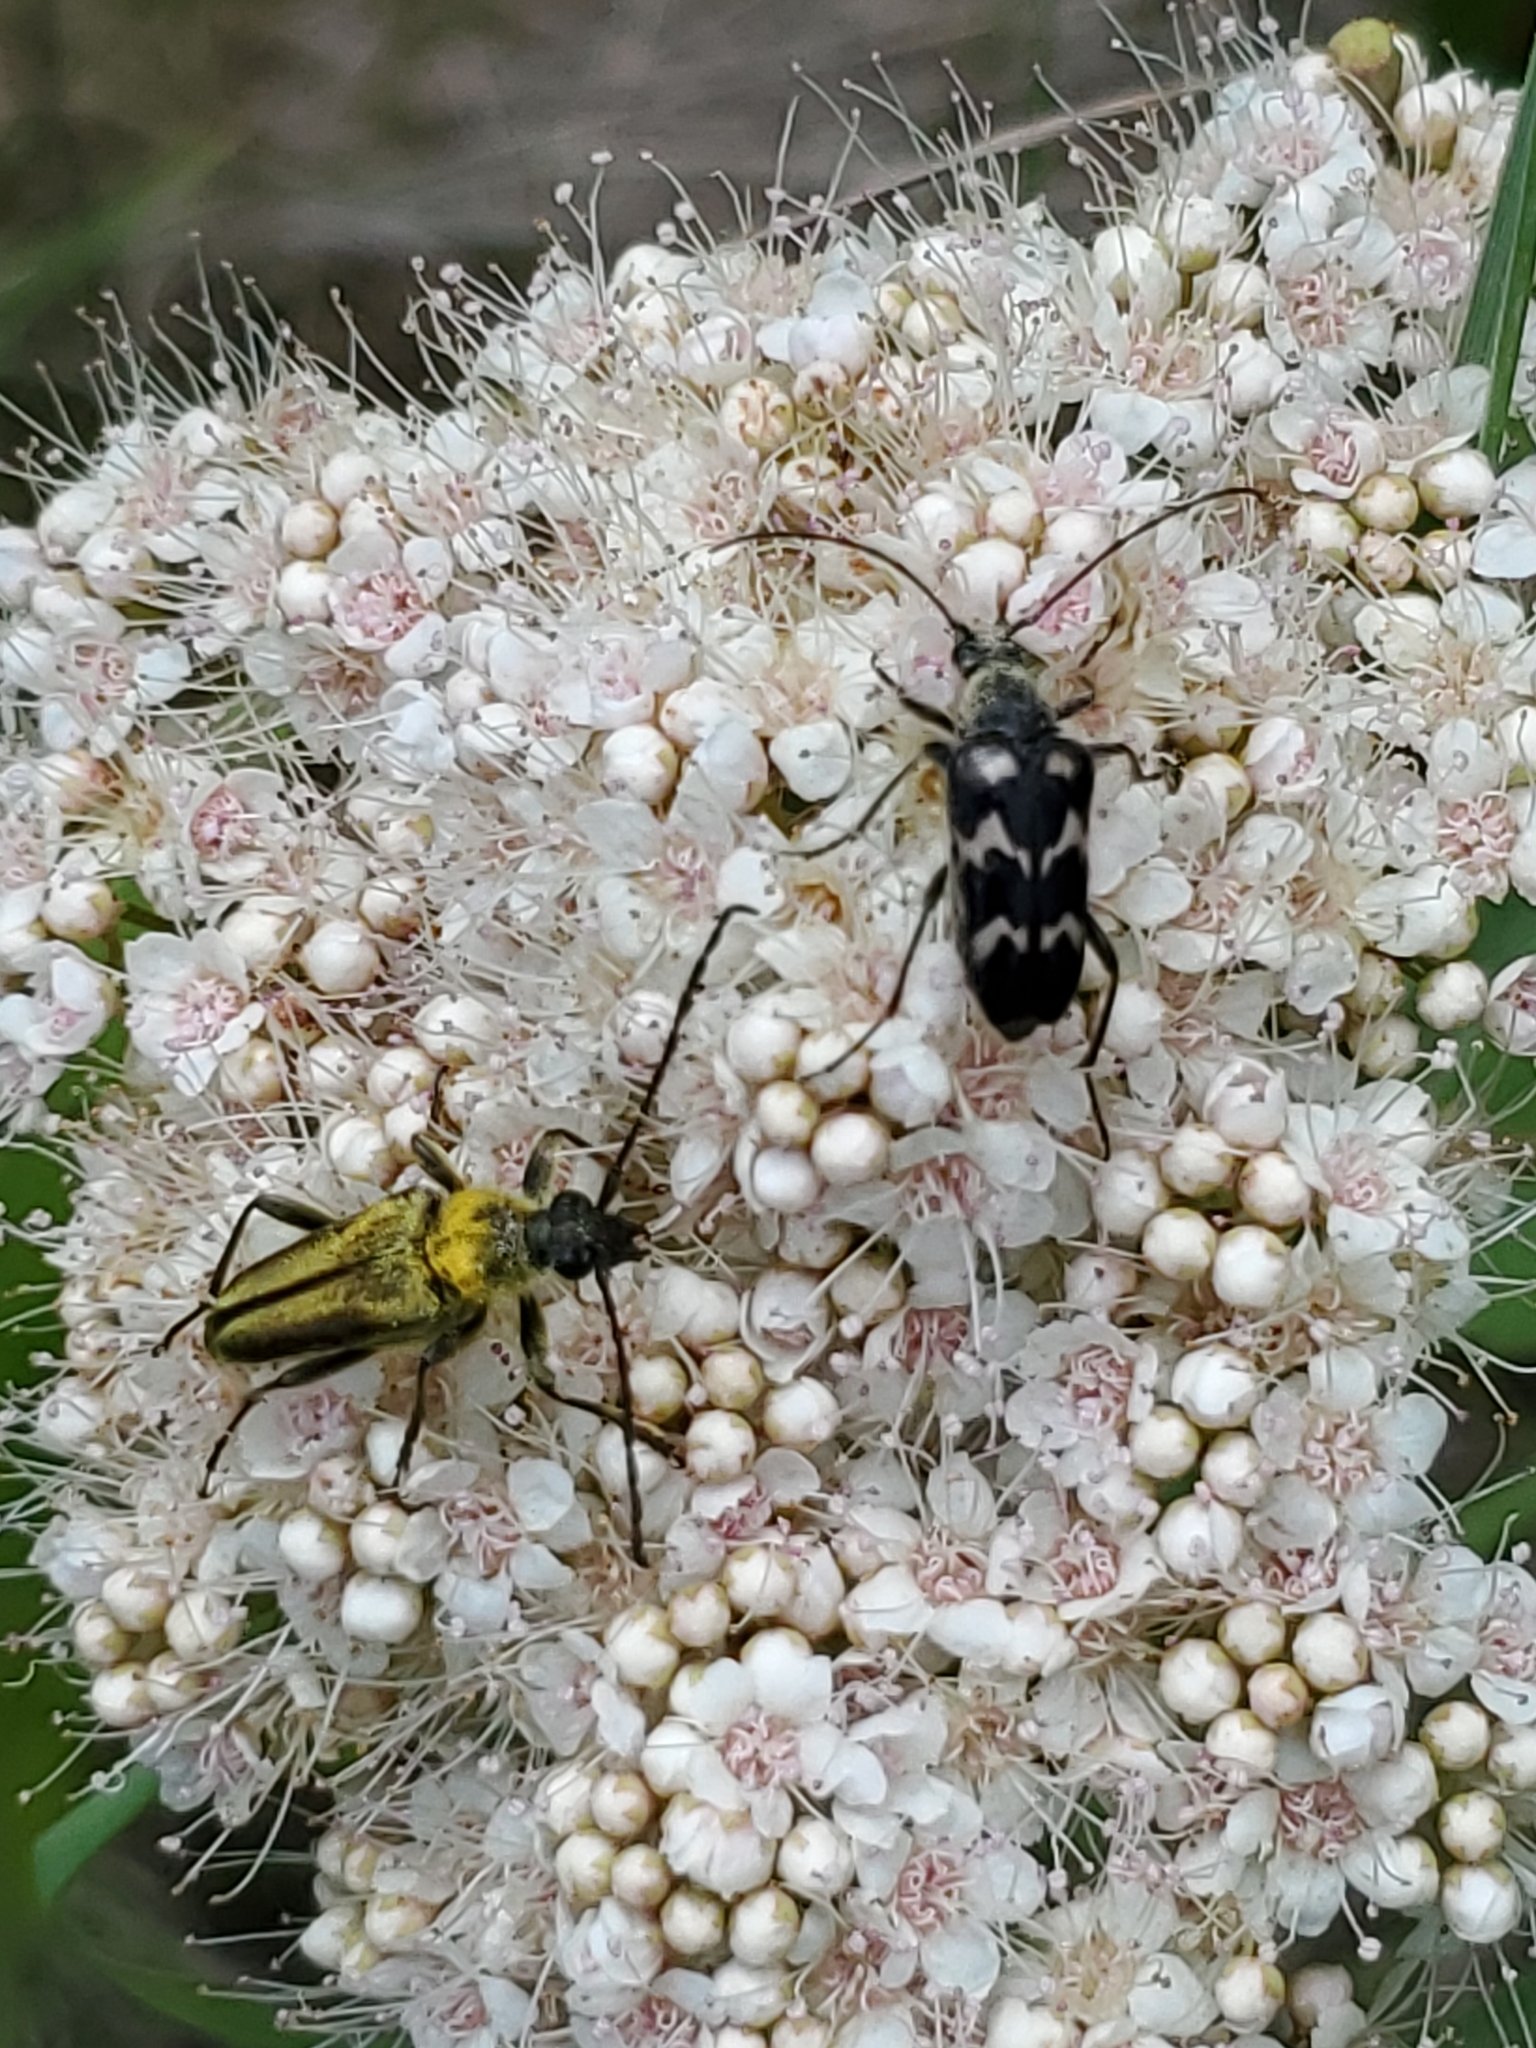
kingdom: Animalia
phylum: Arthropoda
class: Insecta
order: Coleoptera
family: Cerambycidae
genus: Cosmosalia
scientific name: Cosmosalia chrysocoma
